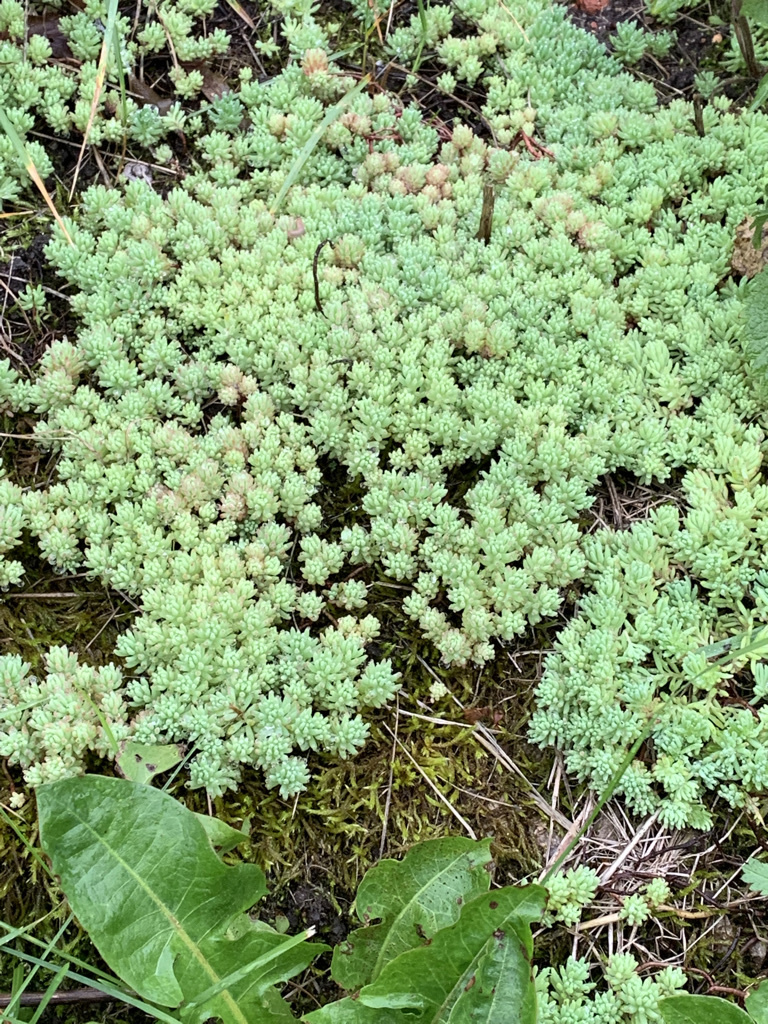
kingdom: Plantae
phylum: Tracheophyta
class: Magnoliopsida
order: Saxifragales
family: Crassulaceae
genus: Sedum
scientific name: Sedum pallidum
